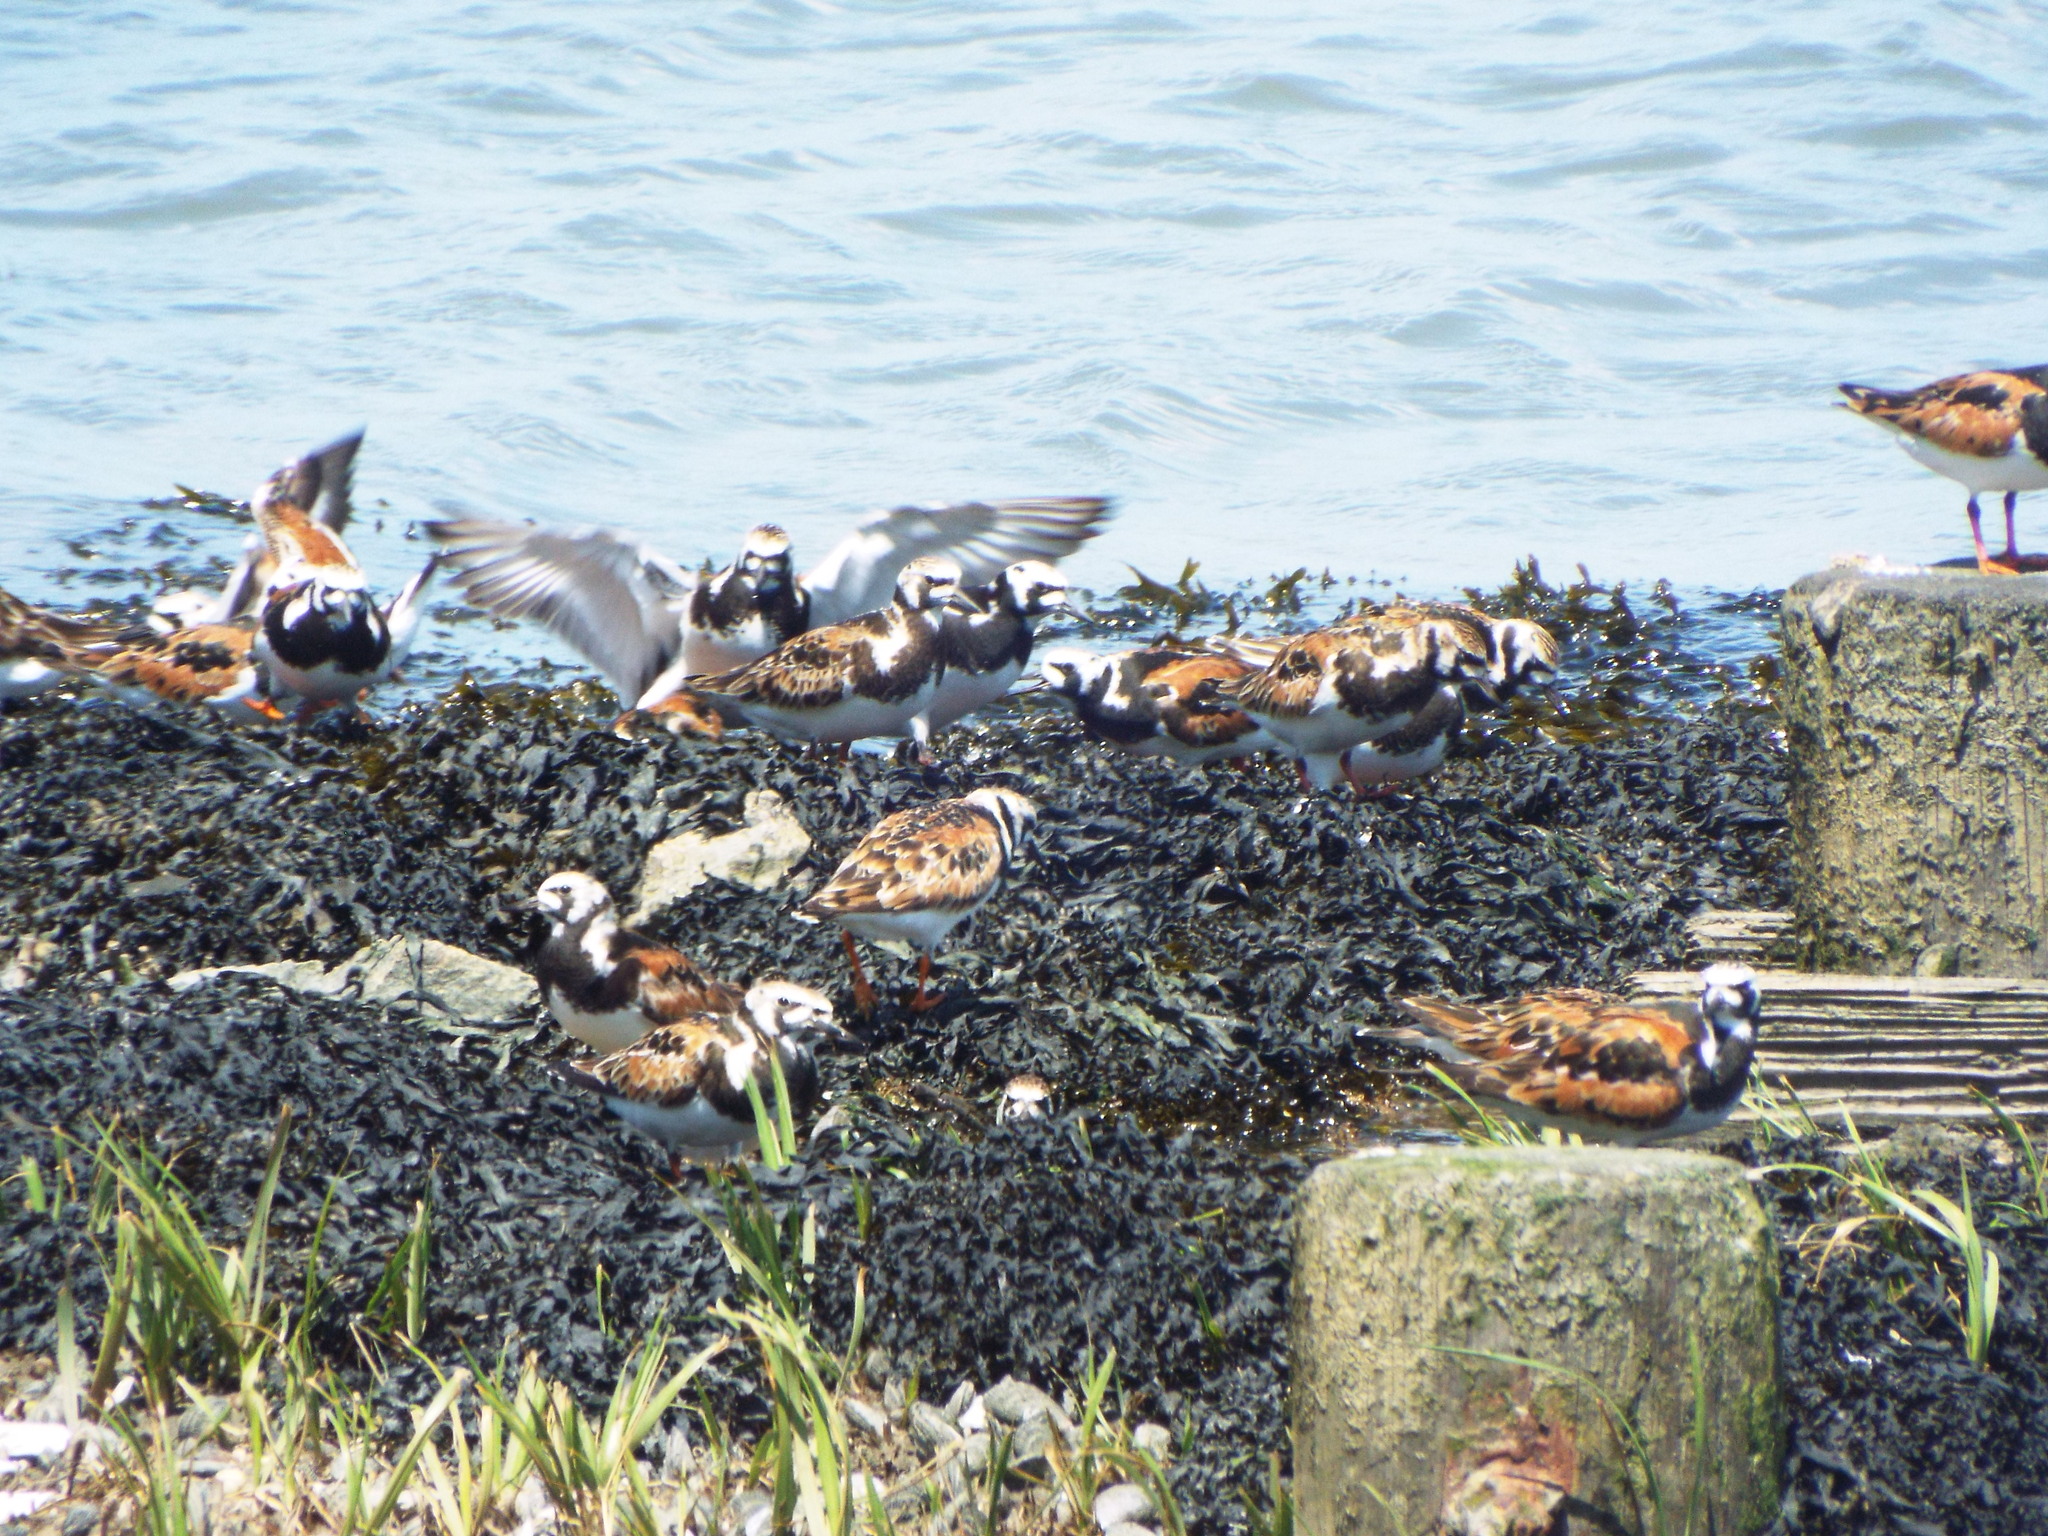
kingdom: Animalia
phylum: Chordata
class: Aves
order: Charadriiformes
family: Scolopacidae
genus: Arenaria
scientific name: Arenaria interpres
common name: Ruddy turnstone
